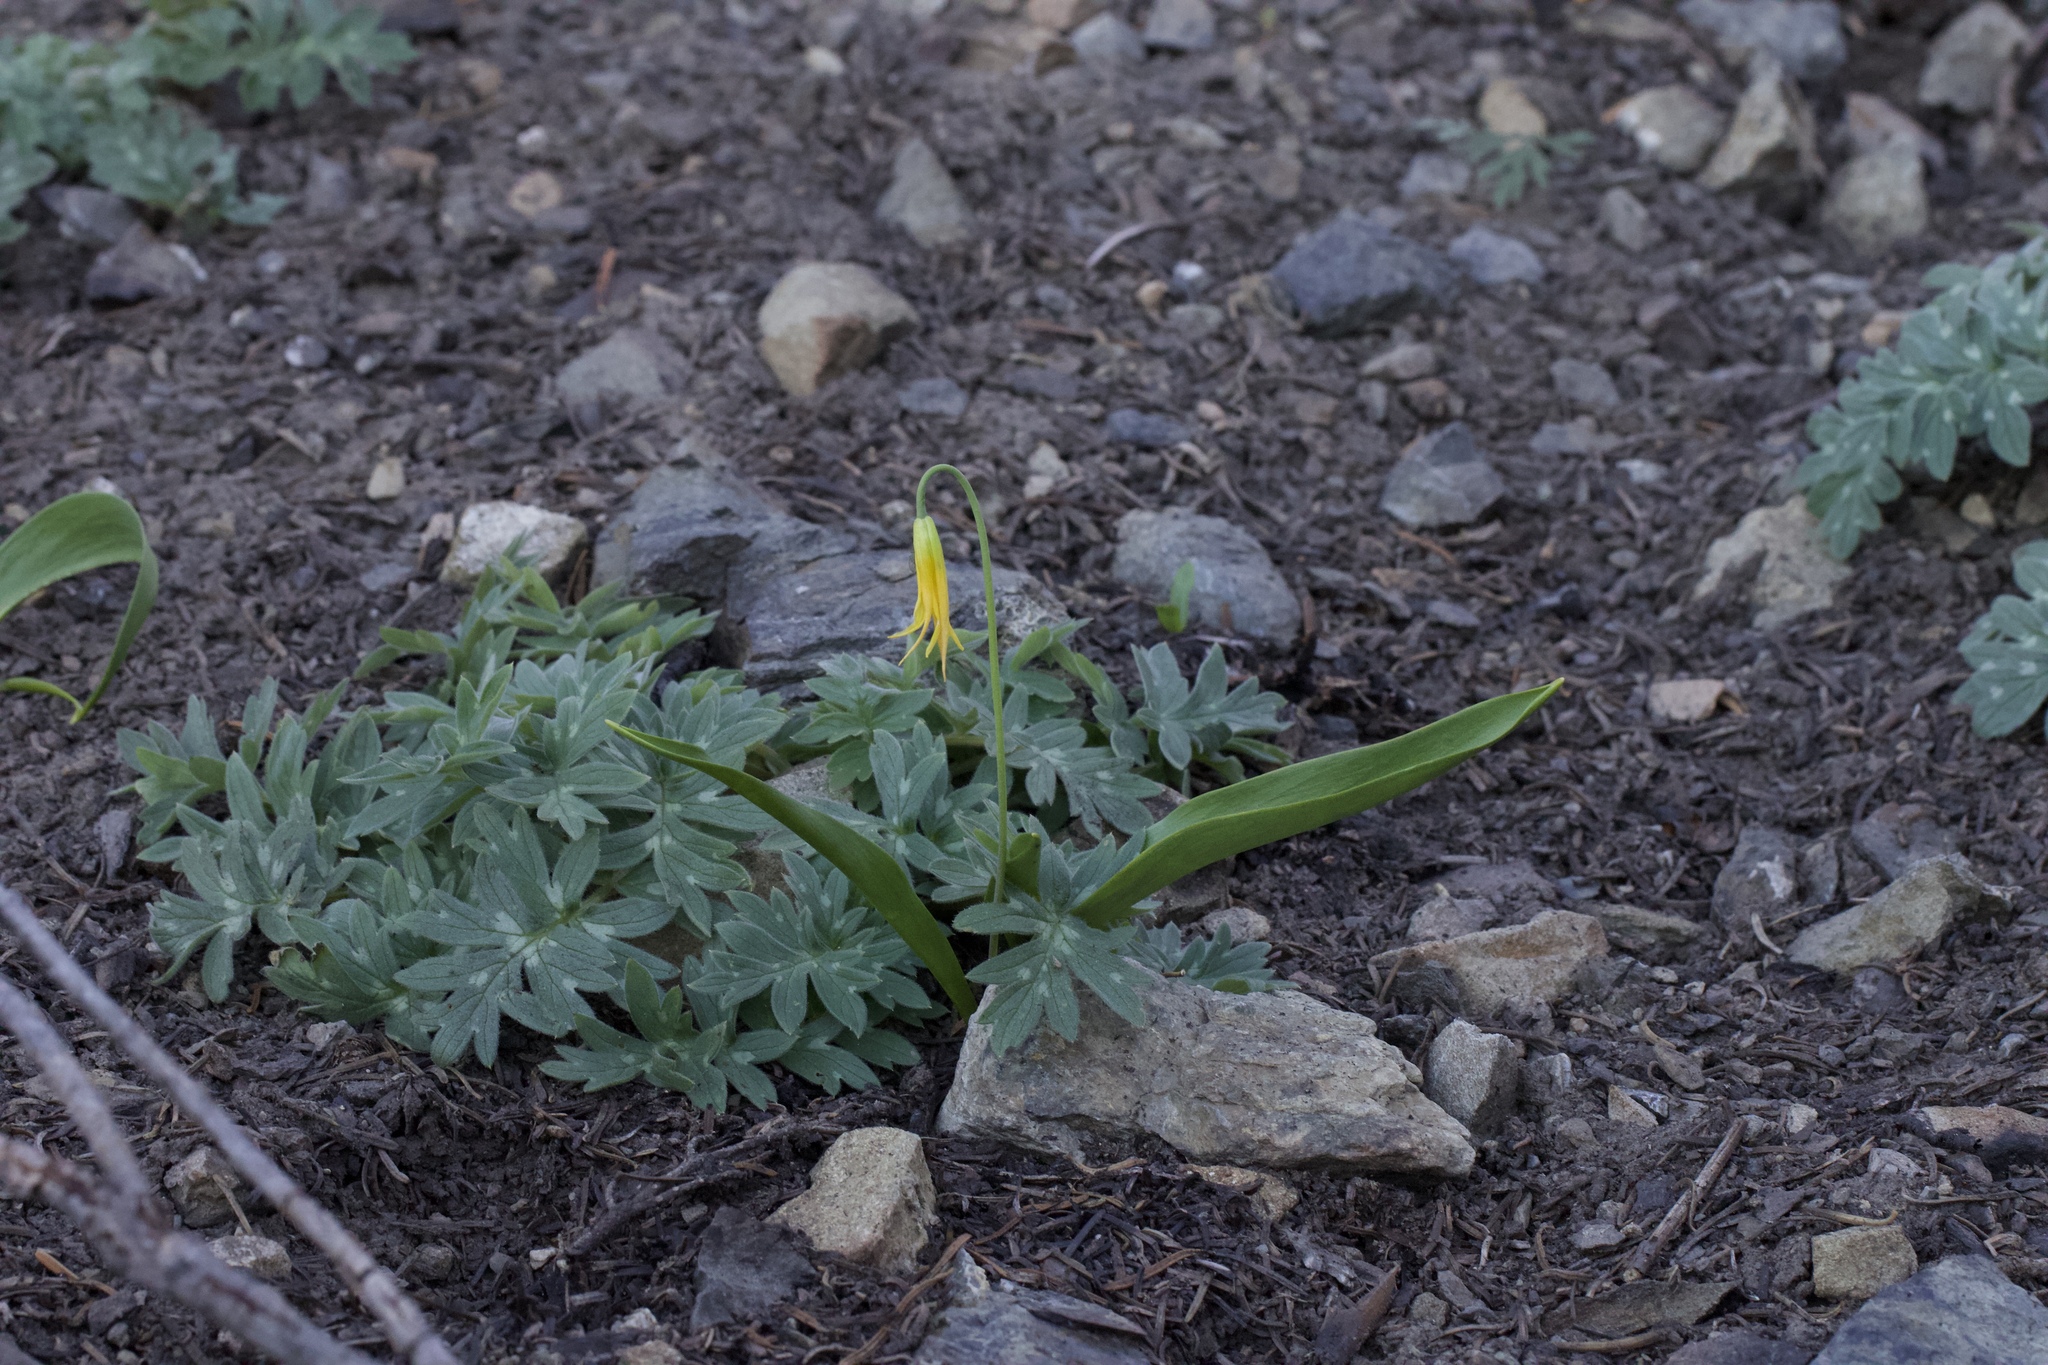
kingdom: Plantae
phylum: Tracheophyta
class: Liliopsida
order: Liliales
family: Liliaceae
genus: Erythronium
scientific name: Erythronium grandiflorum
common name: Avalanche-lily
